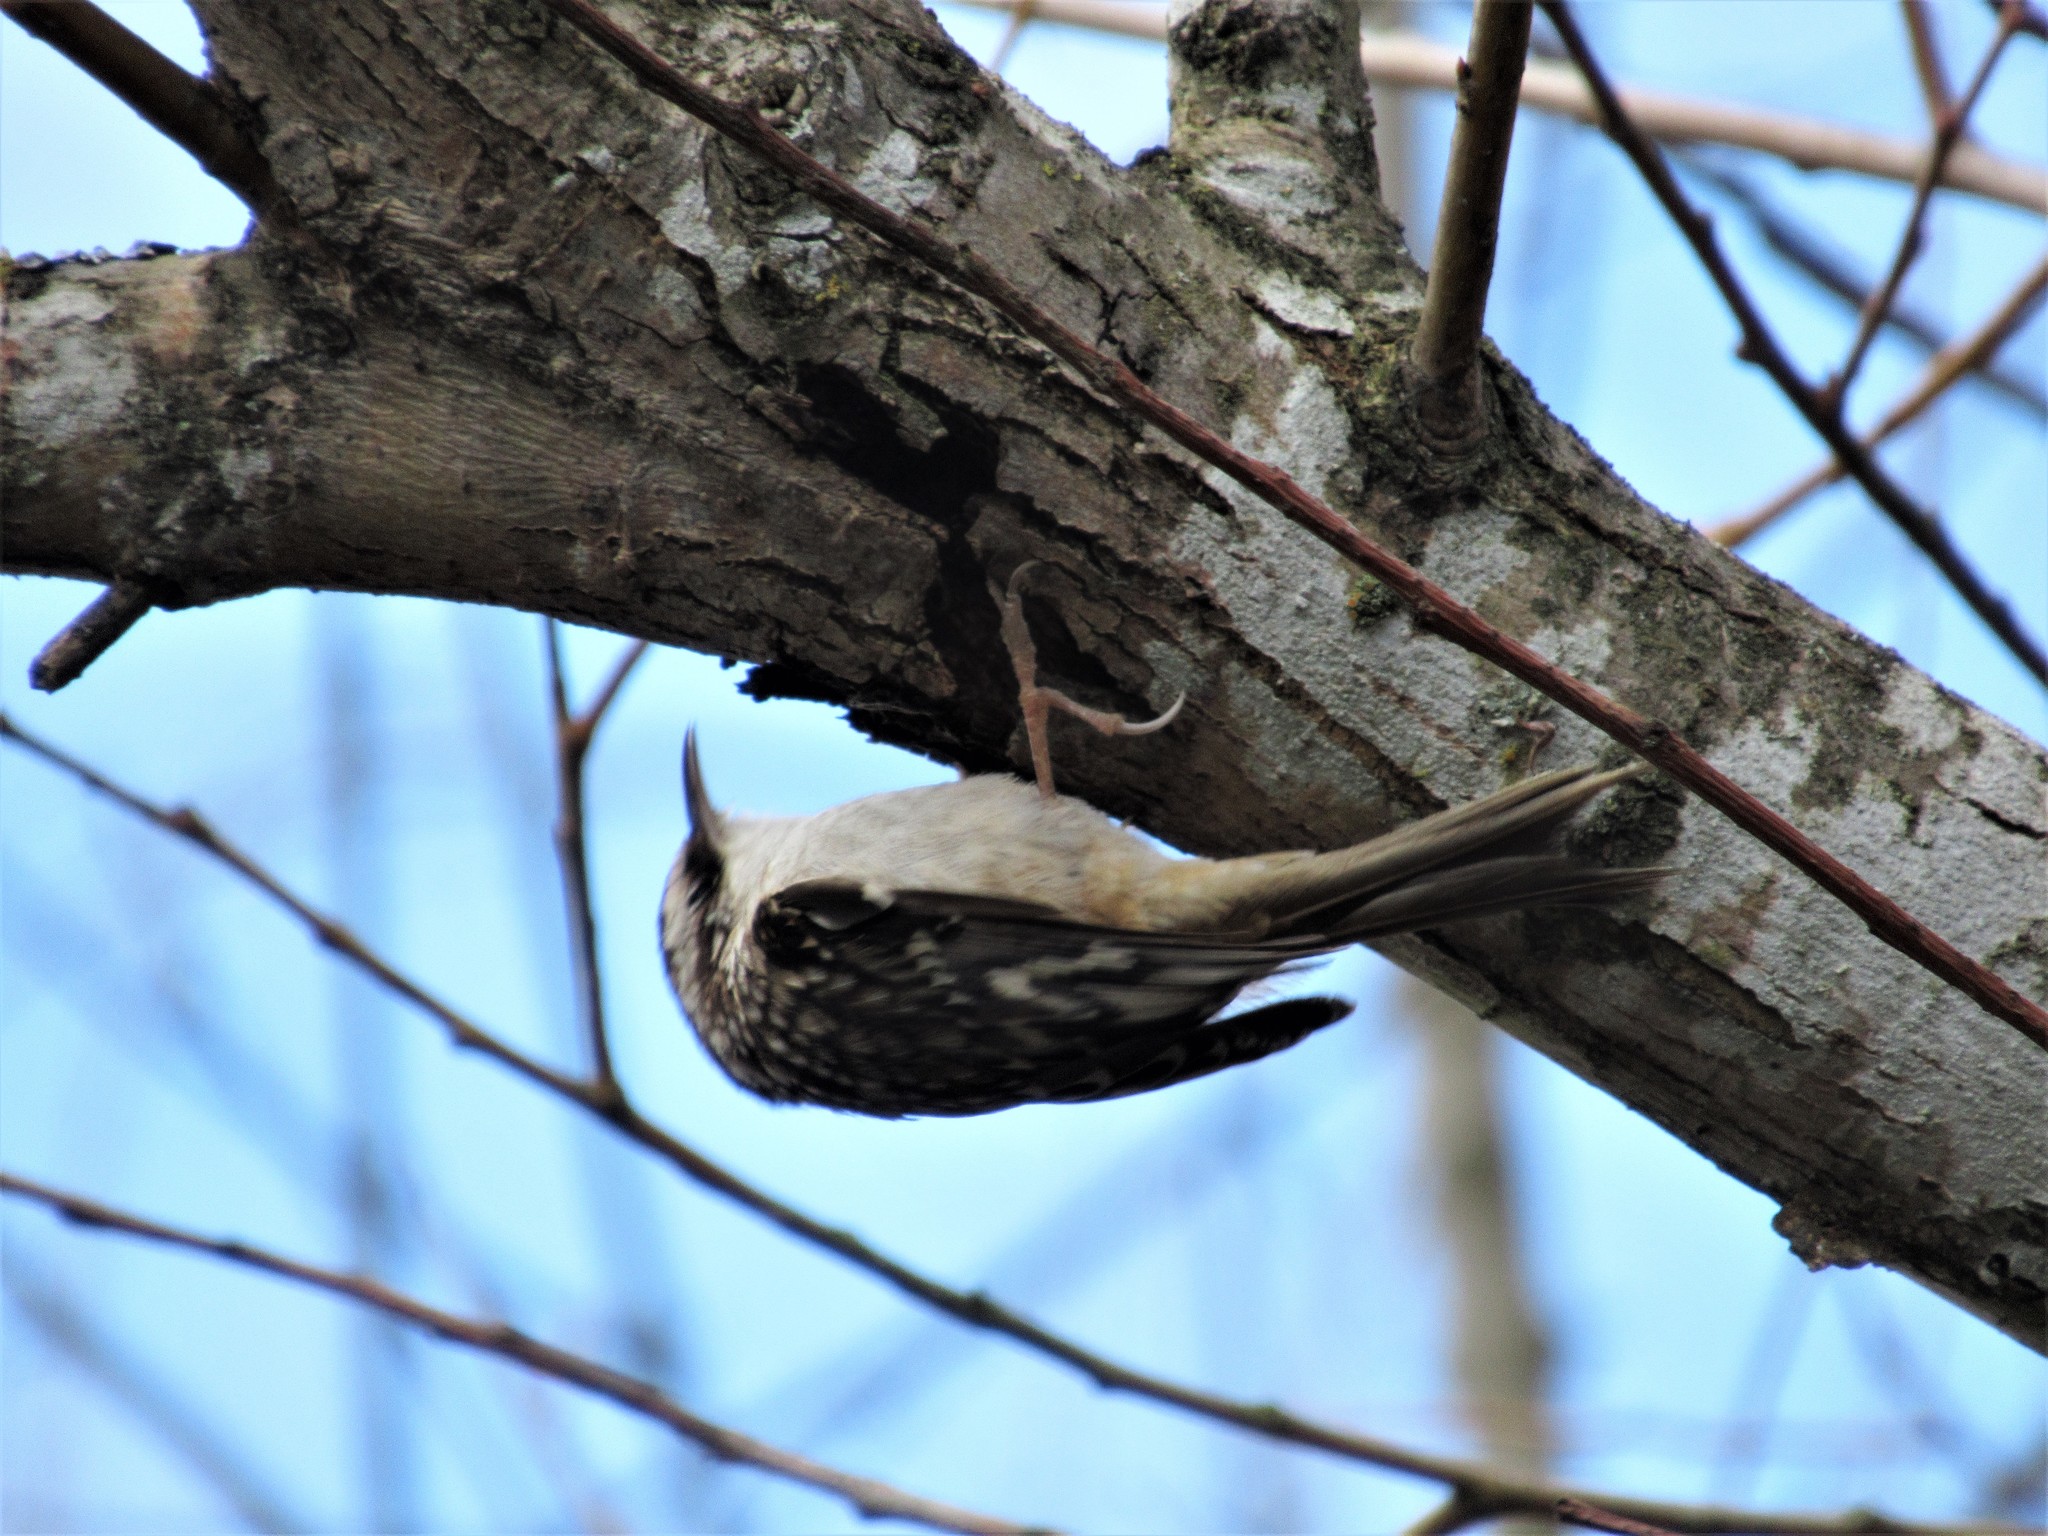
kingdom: Animalia
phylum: Chordata
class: Aves
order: Passeriformes
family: Certhiidae
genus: Certhia
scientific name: Certhia americana
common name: Brown creeper
